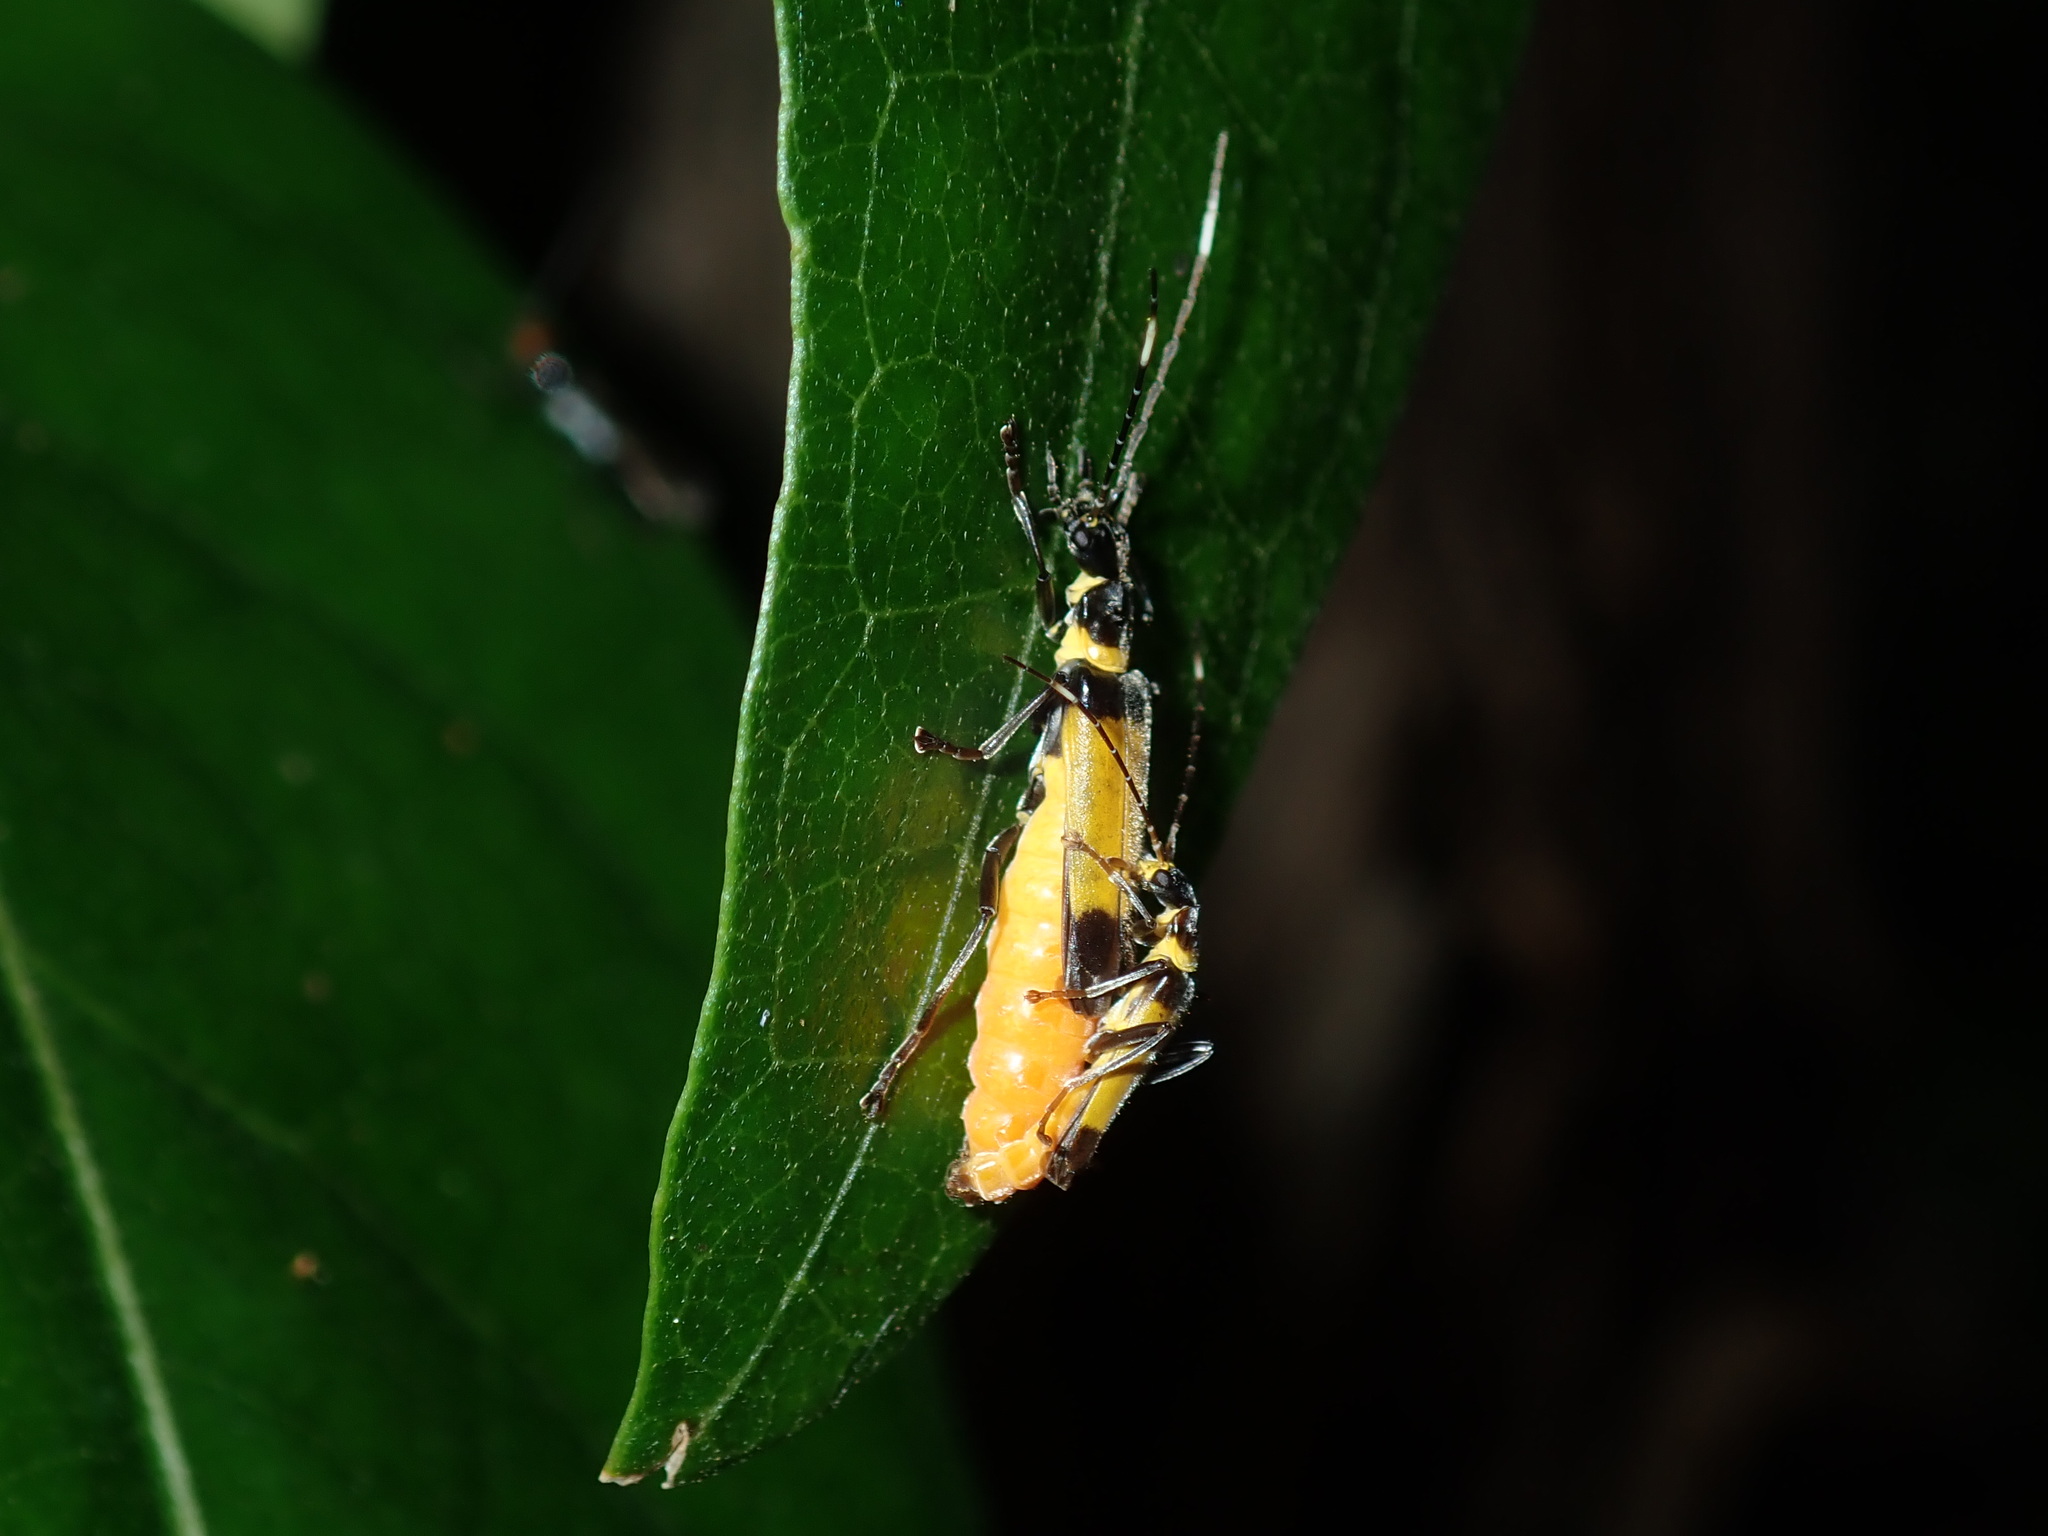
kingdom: Animalia
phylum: Arthropoda
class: Insecta
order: Coleoptera
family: Cantharidae
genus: Chauliognathus
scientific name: Chauliognathus
